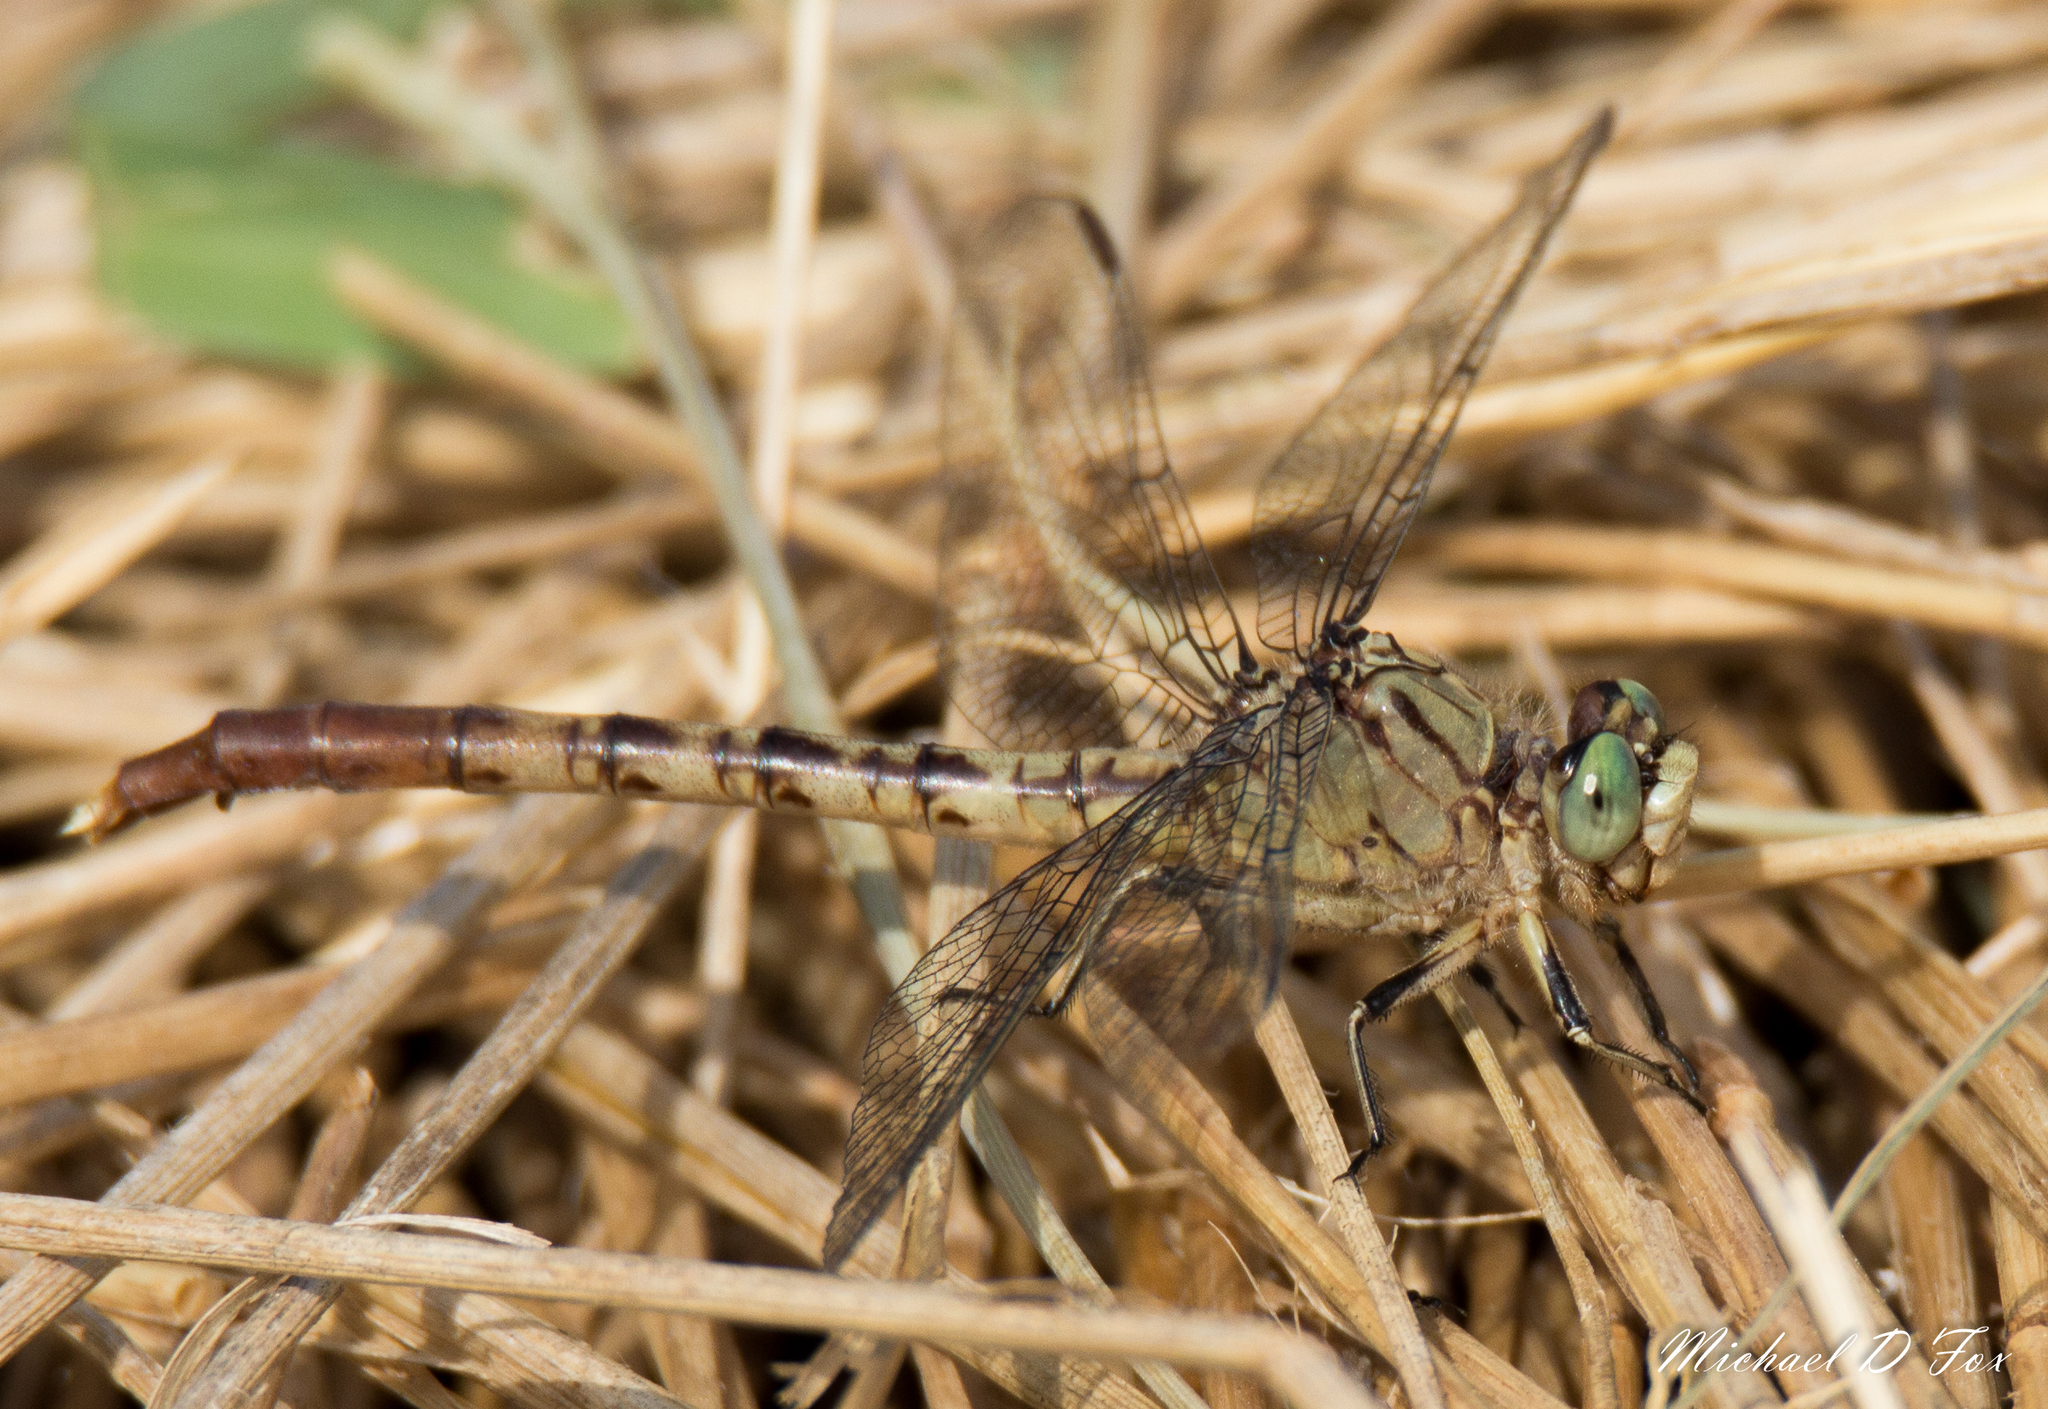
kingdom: Animalia
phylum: Arthropoda
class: Insecta
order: Odonata
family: Gomphidae
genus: Arigomphus
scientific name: Arigomphus submedianus
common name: Jade clubtail
